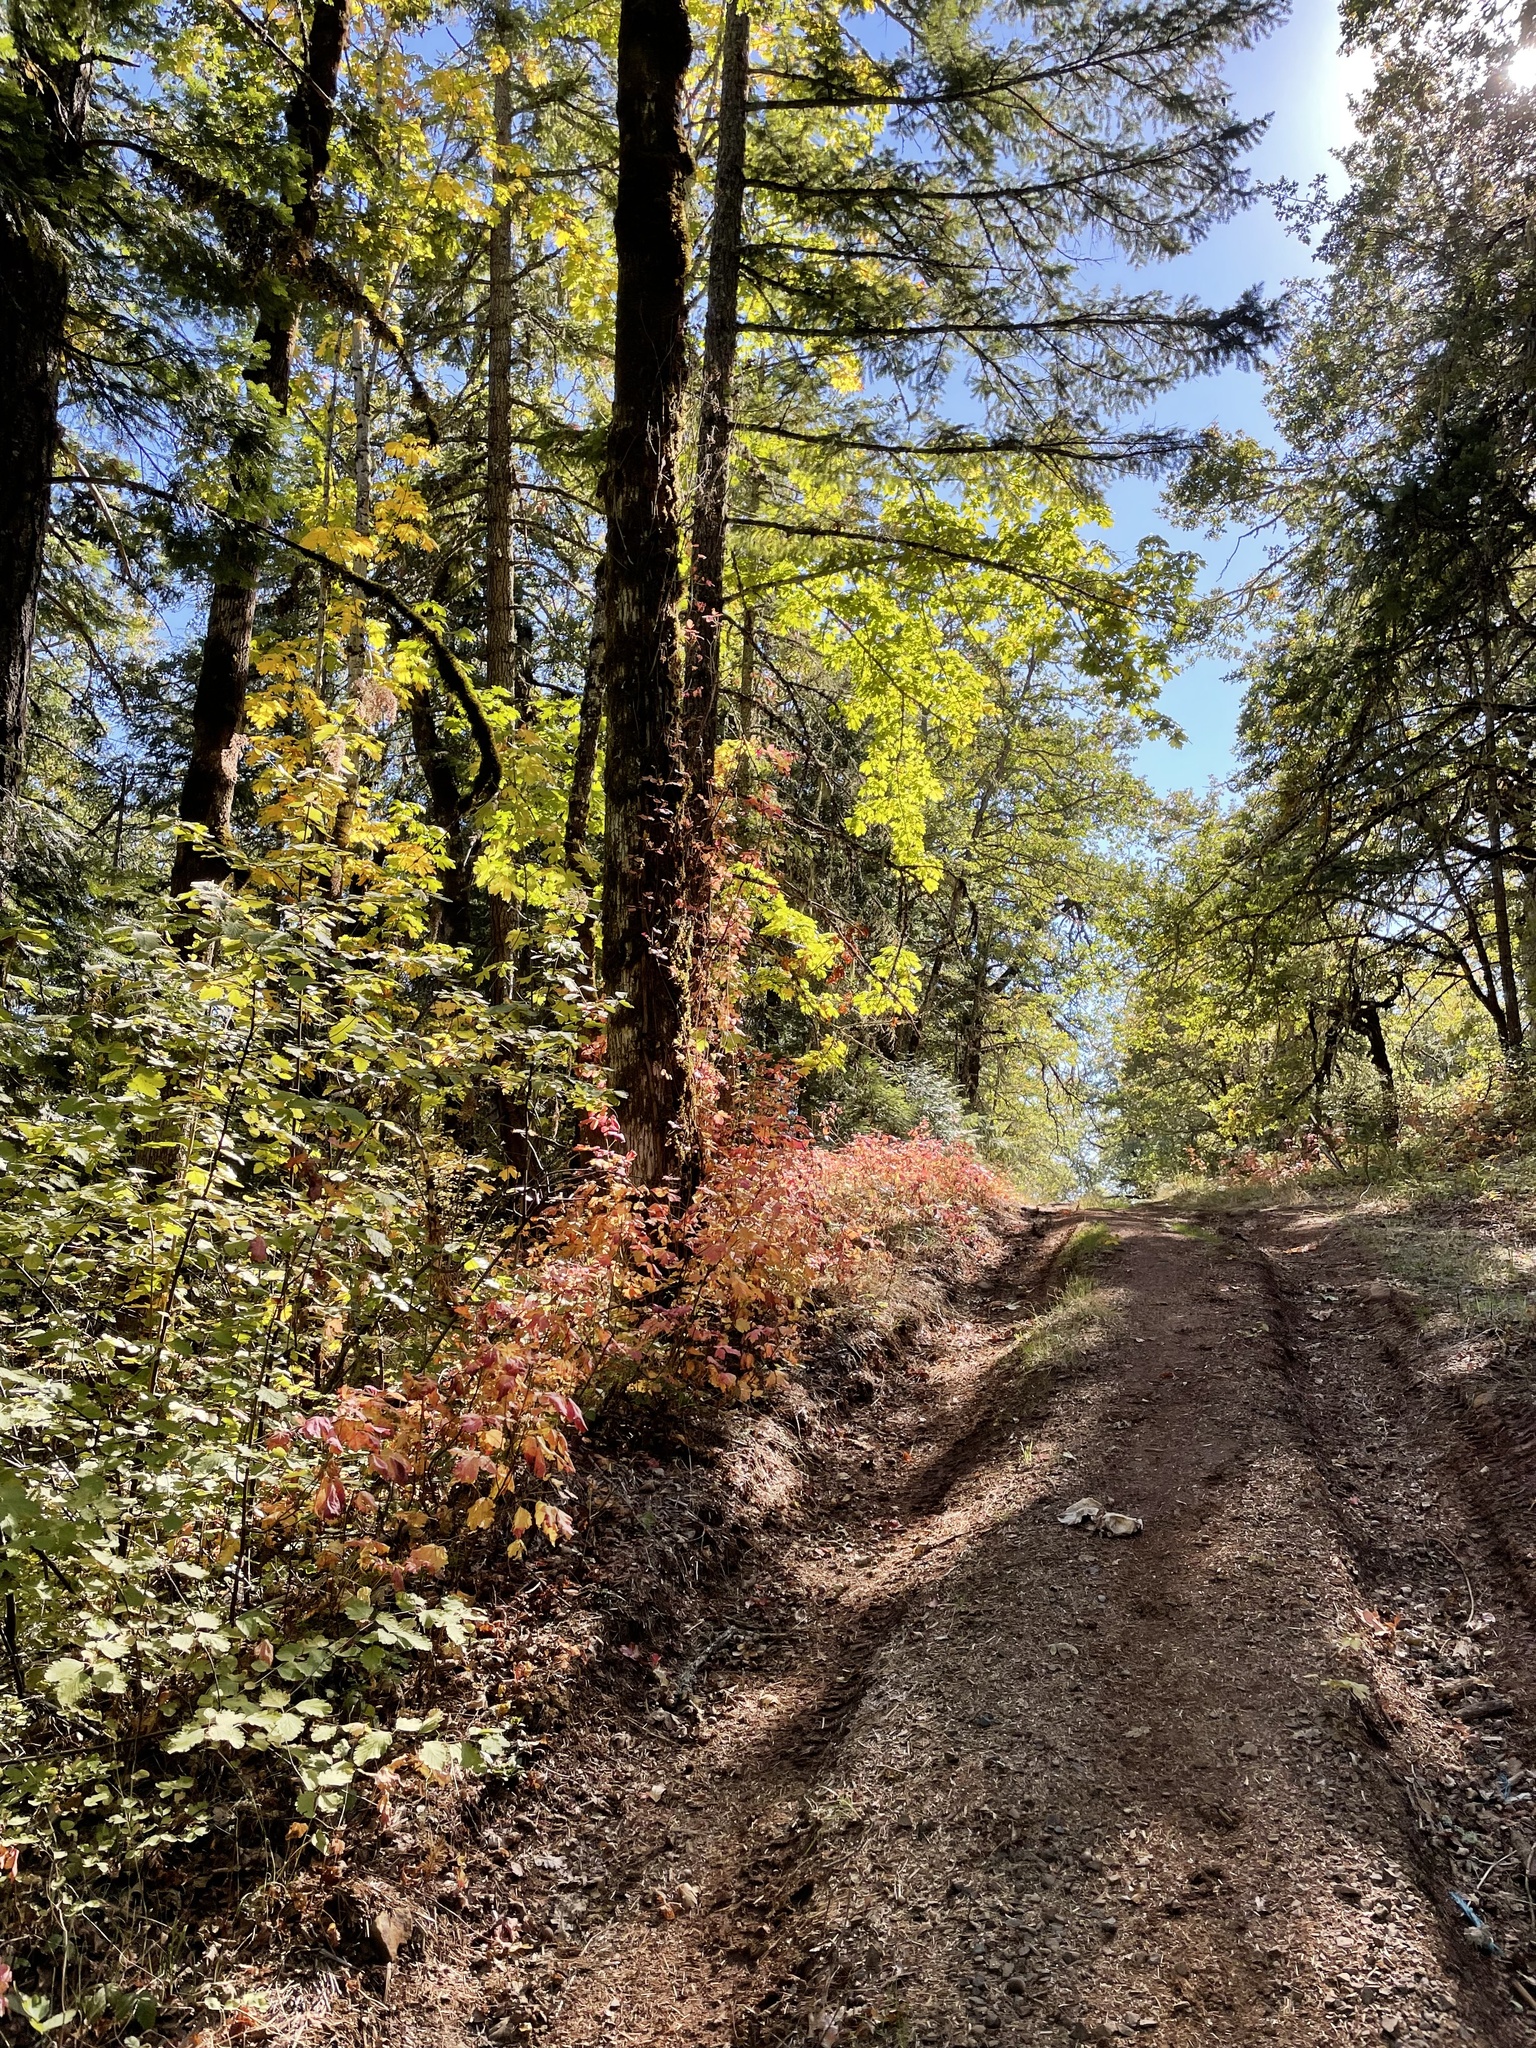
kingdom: Plantae
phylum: Tracheophyta
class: Magnoliopsida
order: Sapindales
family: Anacardiaceae
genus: Toxicodendron
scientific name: Toxicodendron diversilobum
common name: Pacific poison-oak
